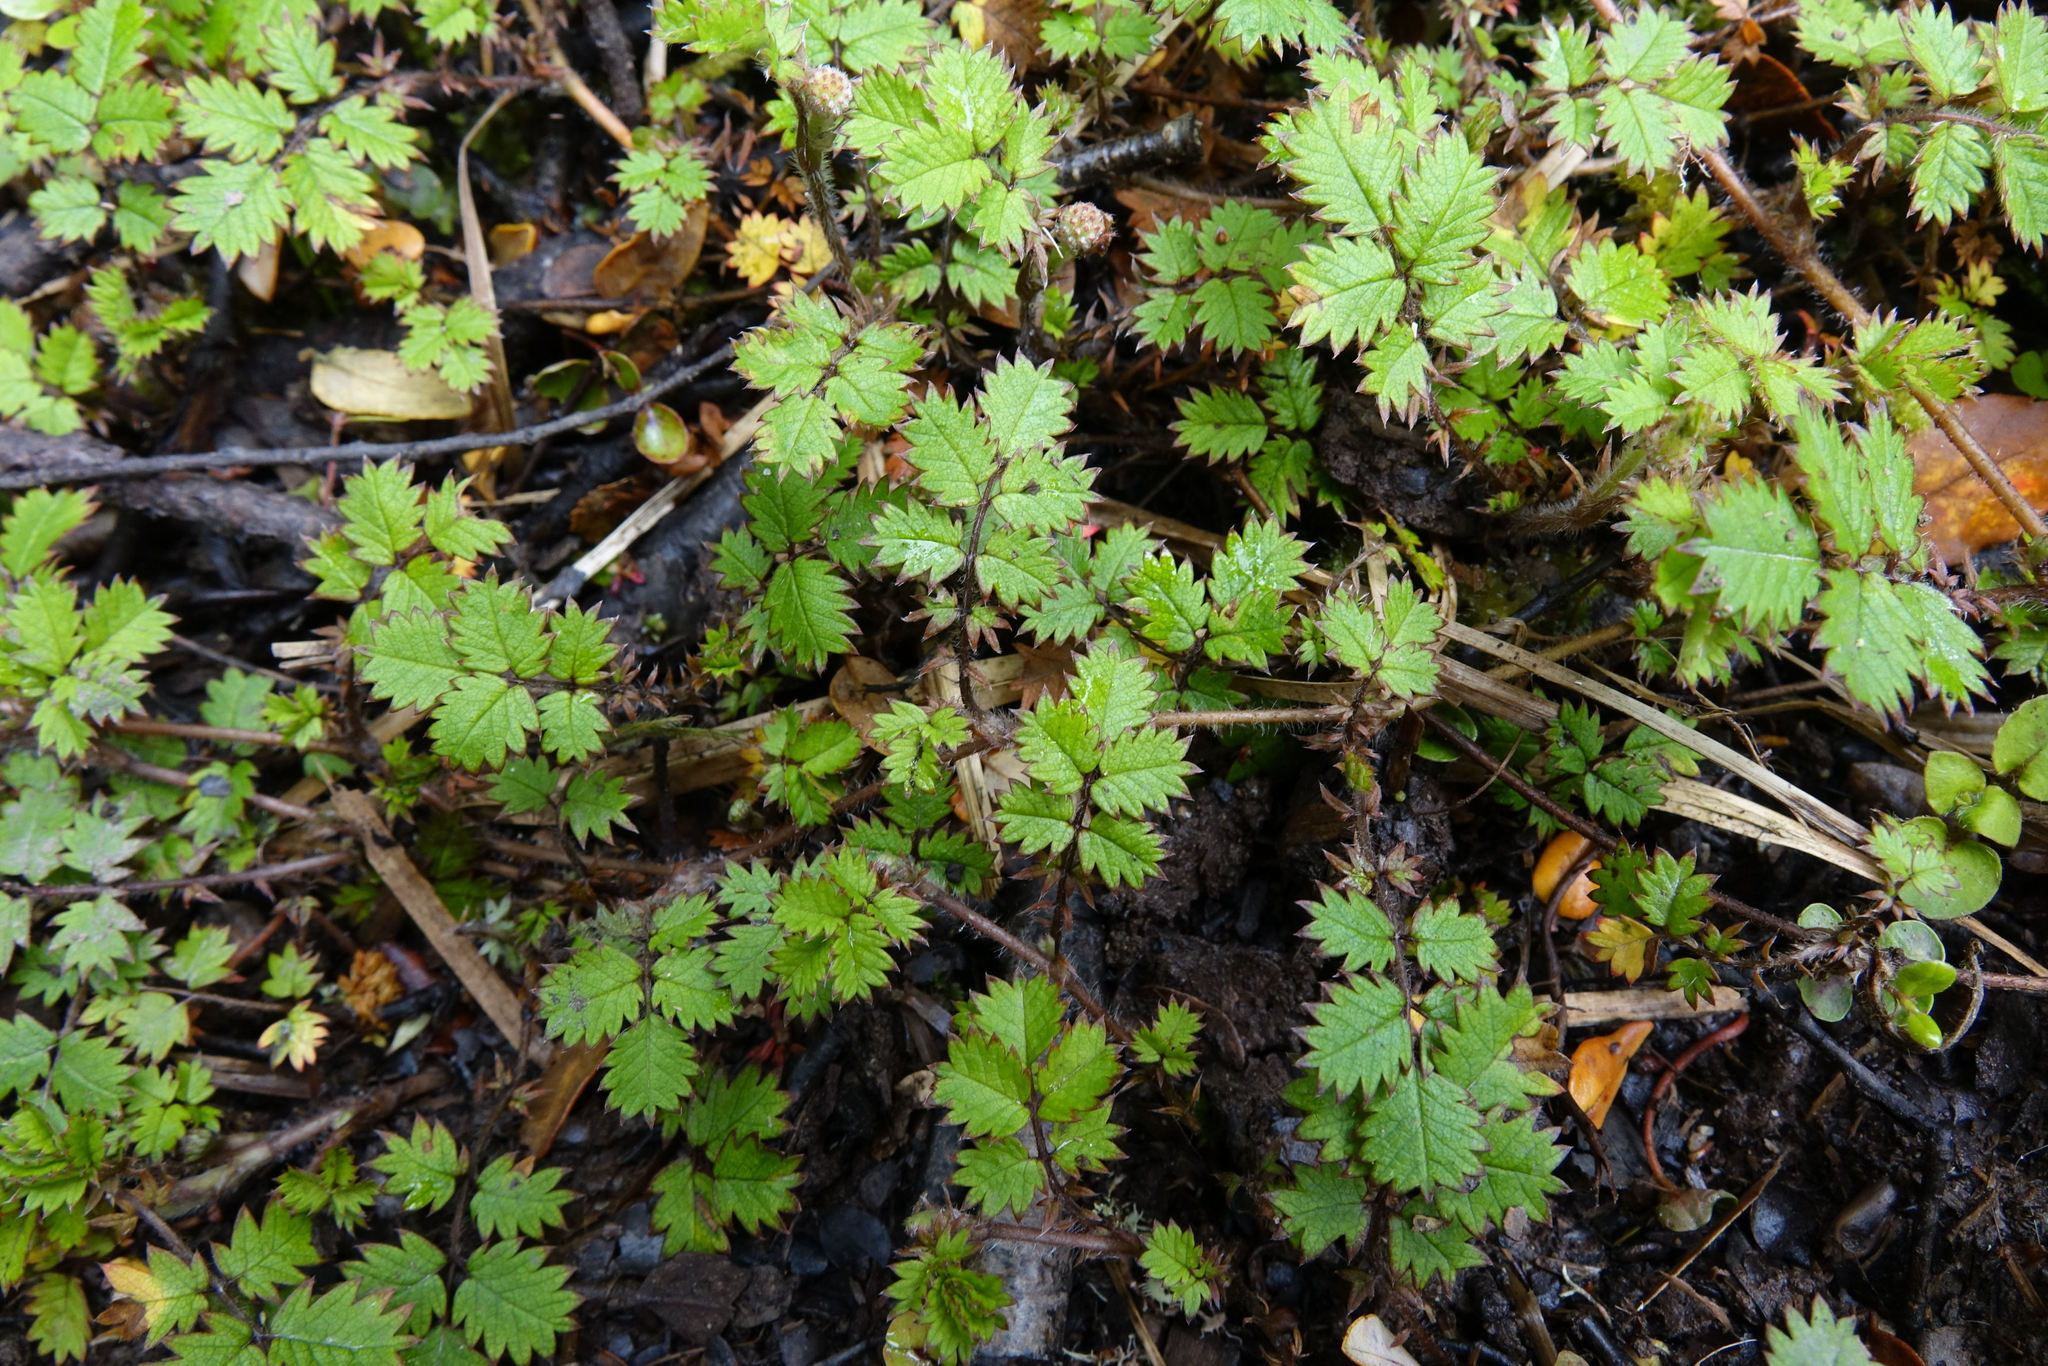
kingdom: Plantae
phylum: Tracheophyta
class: Magnoliopsida
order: Rosales
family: Rosaceae
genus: Acaena
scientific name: Acaena juvenca
